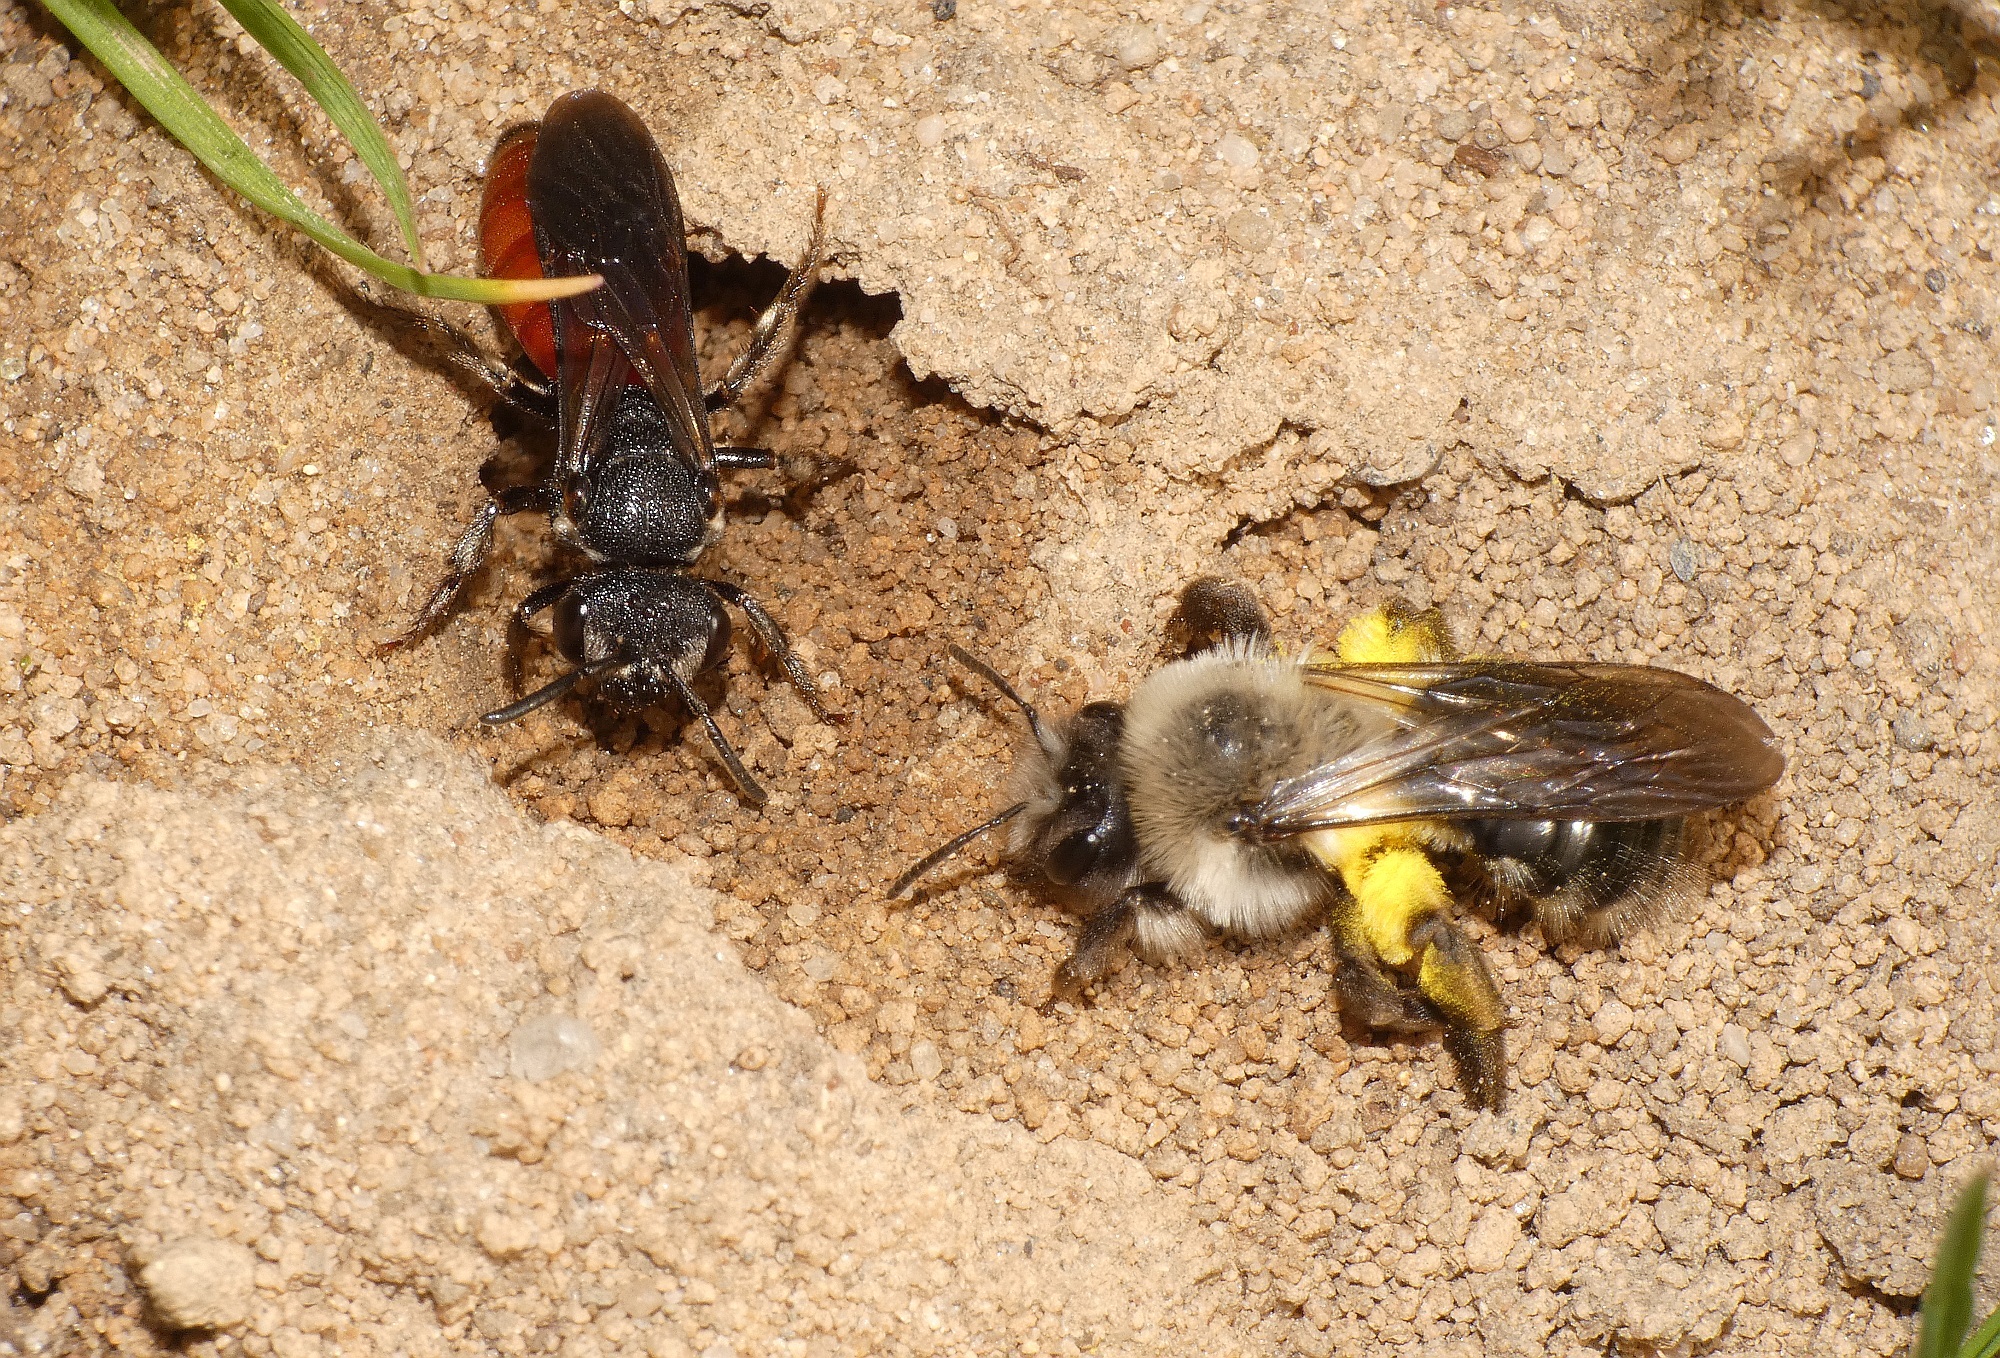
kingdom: Animalia
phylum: Arthropoda
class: Insecta
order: Hymenoptera
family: Andrenidae
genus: Andrena
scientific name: Andrena vaga
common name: Grey-backed mining bee
